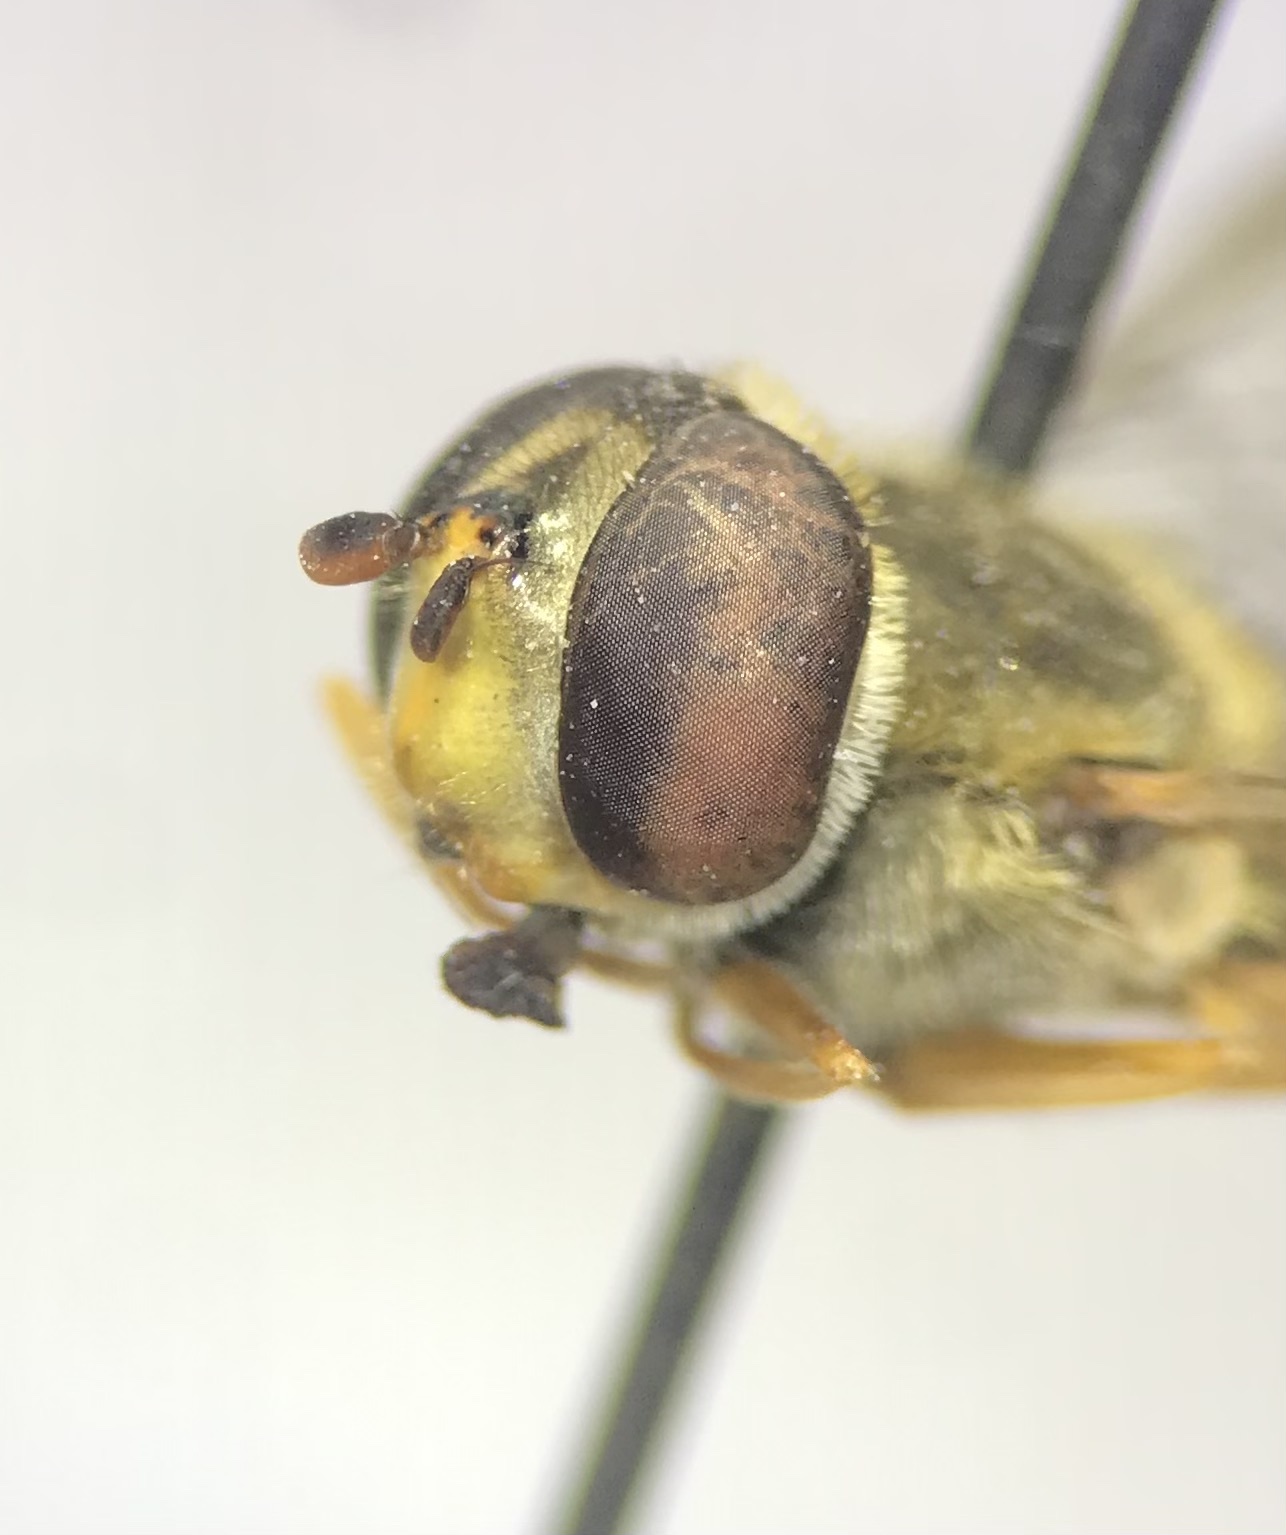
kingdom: Animalia
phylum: Arthropoda
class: Insecta
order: Diptera
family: Syrphidae
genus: Syrphus
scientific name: Syrphus rectus
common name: Yellow-legged flower fly
